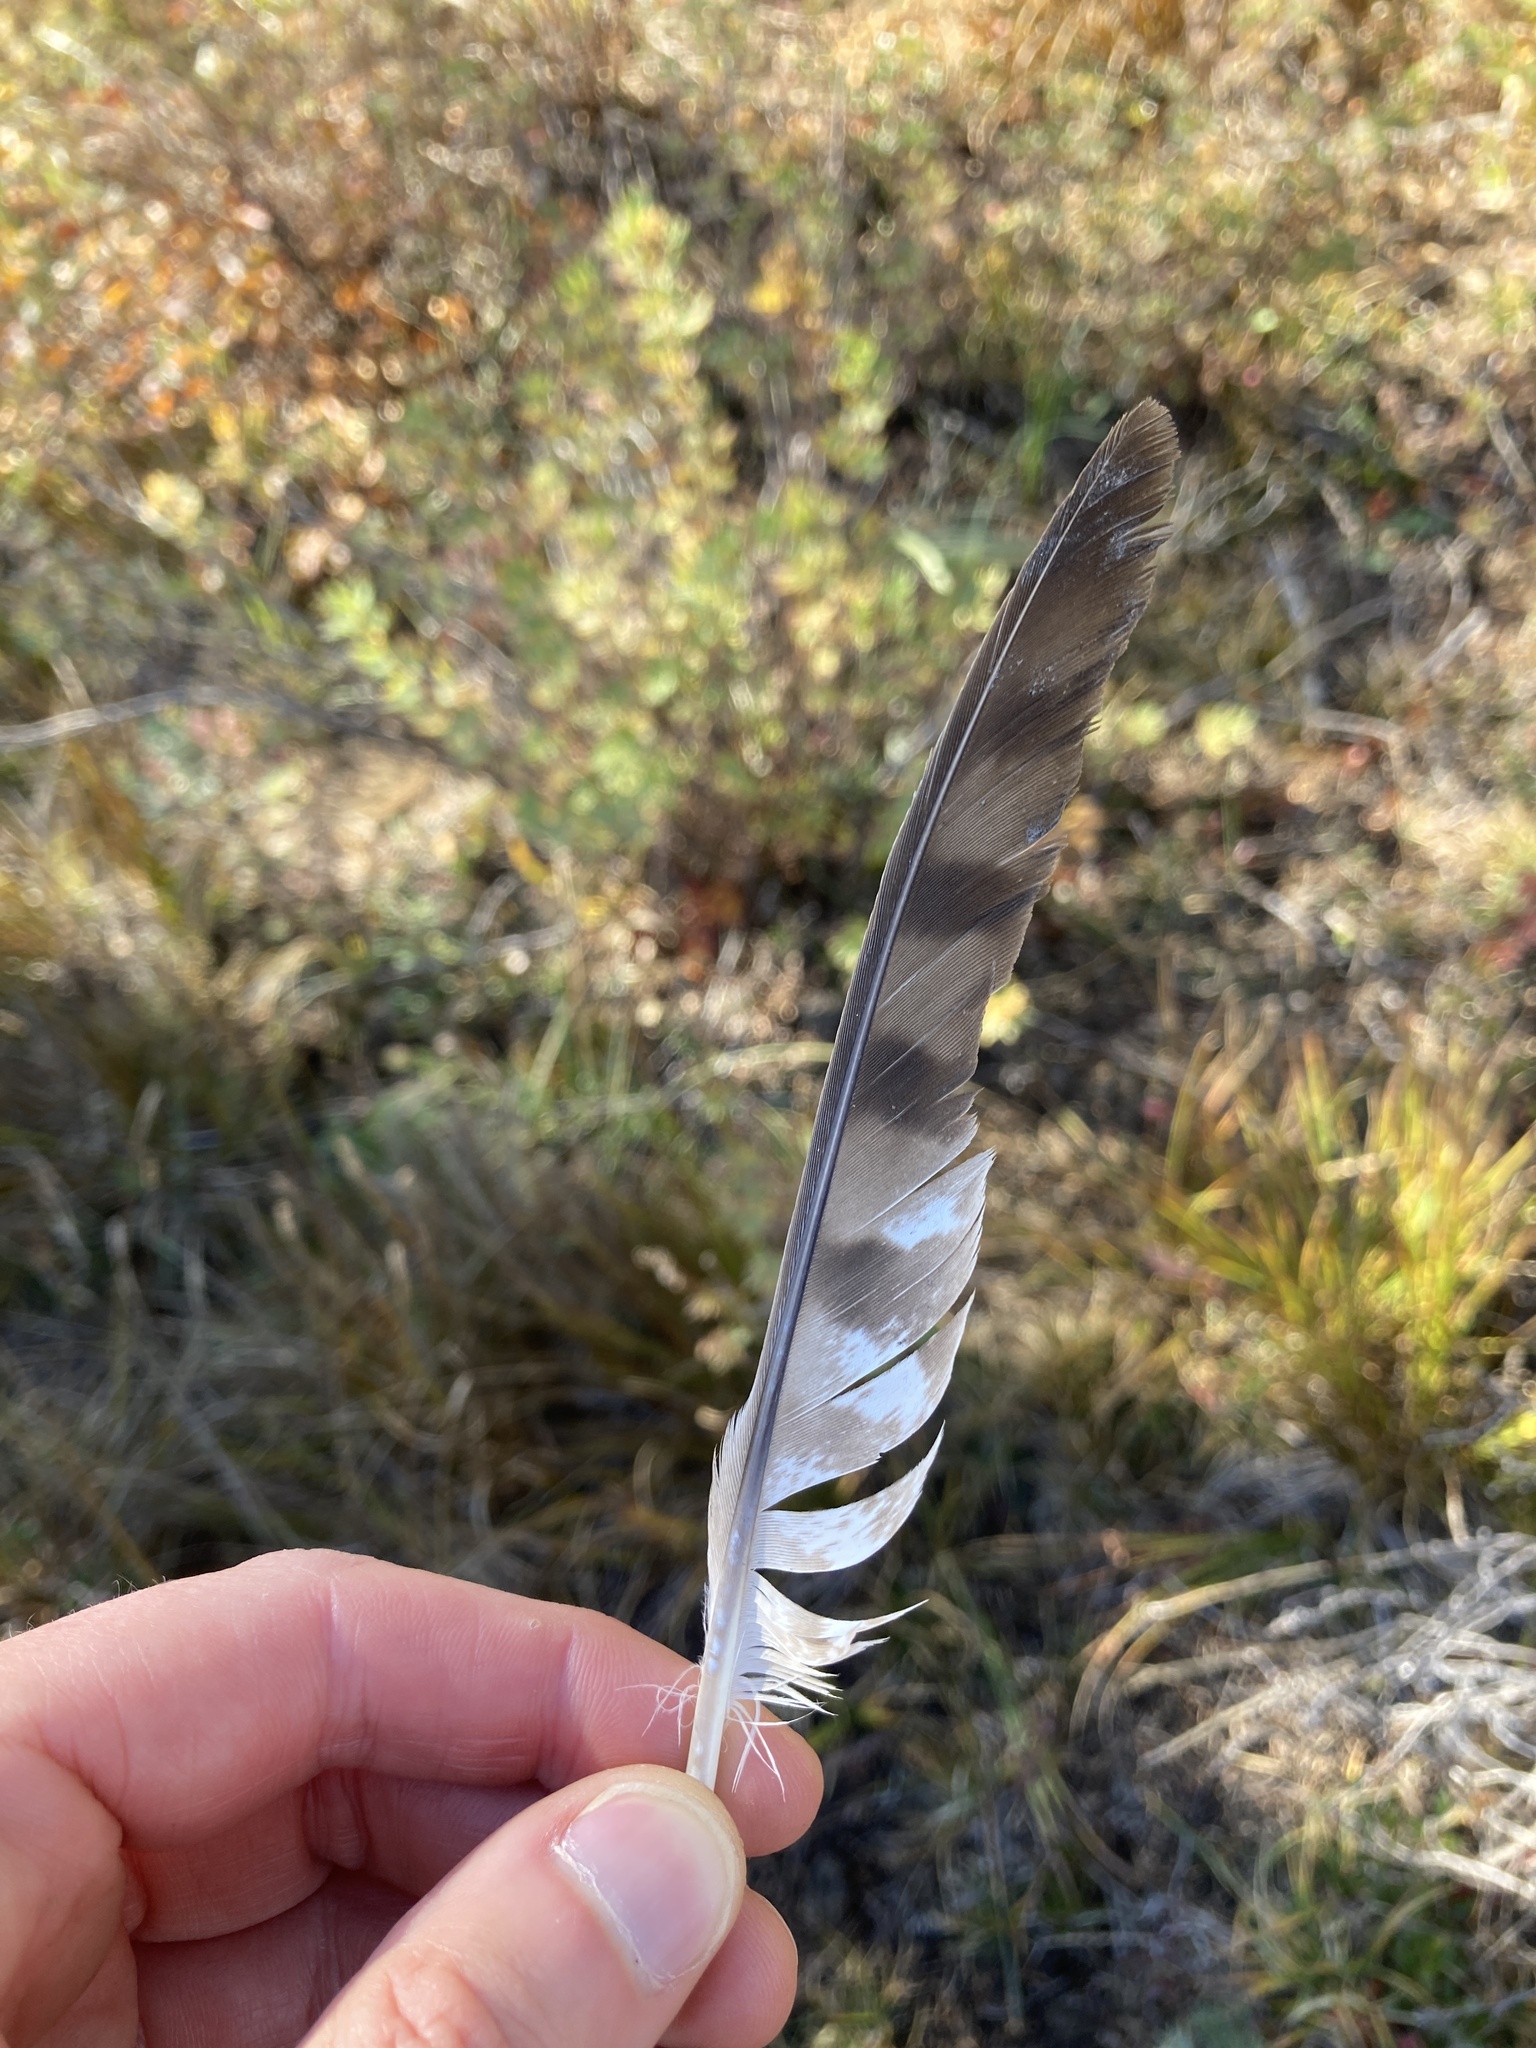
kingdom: Animalia
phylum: Chordata
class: Aves
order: Accipitriformes
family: Accipitridae
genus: Accipiter
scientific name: Accipiter cooperii
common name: Cooper's hawk
